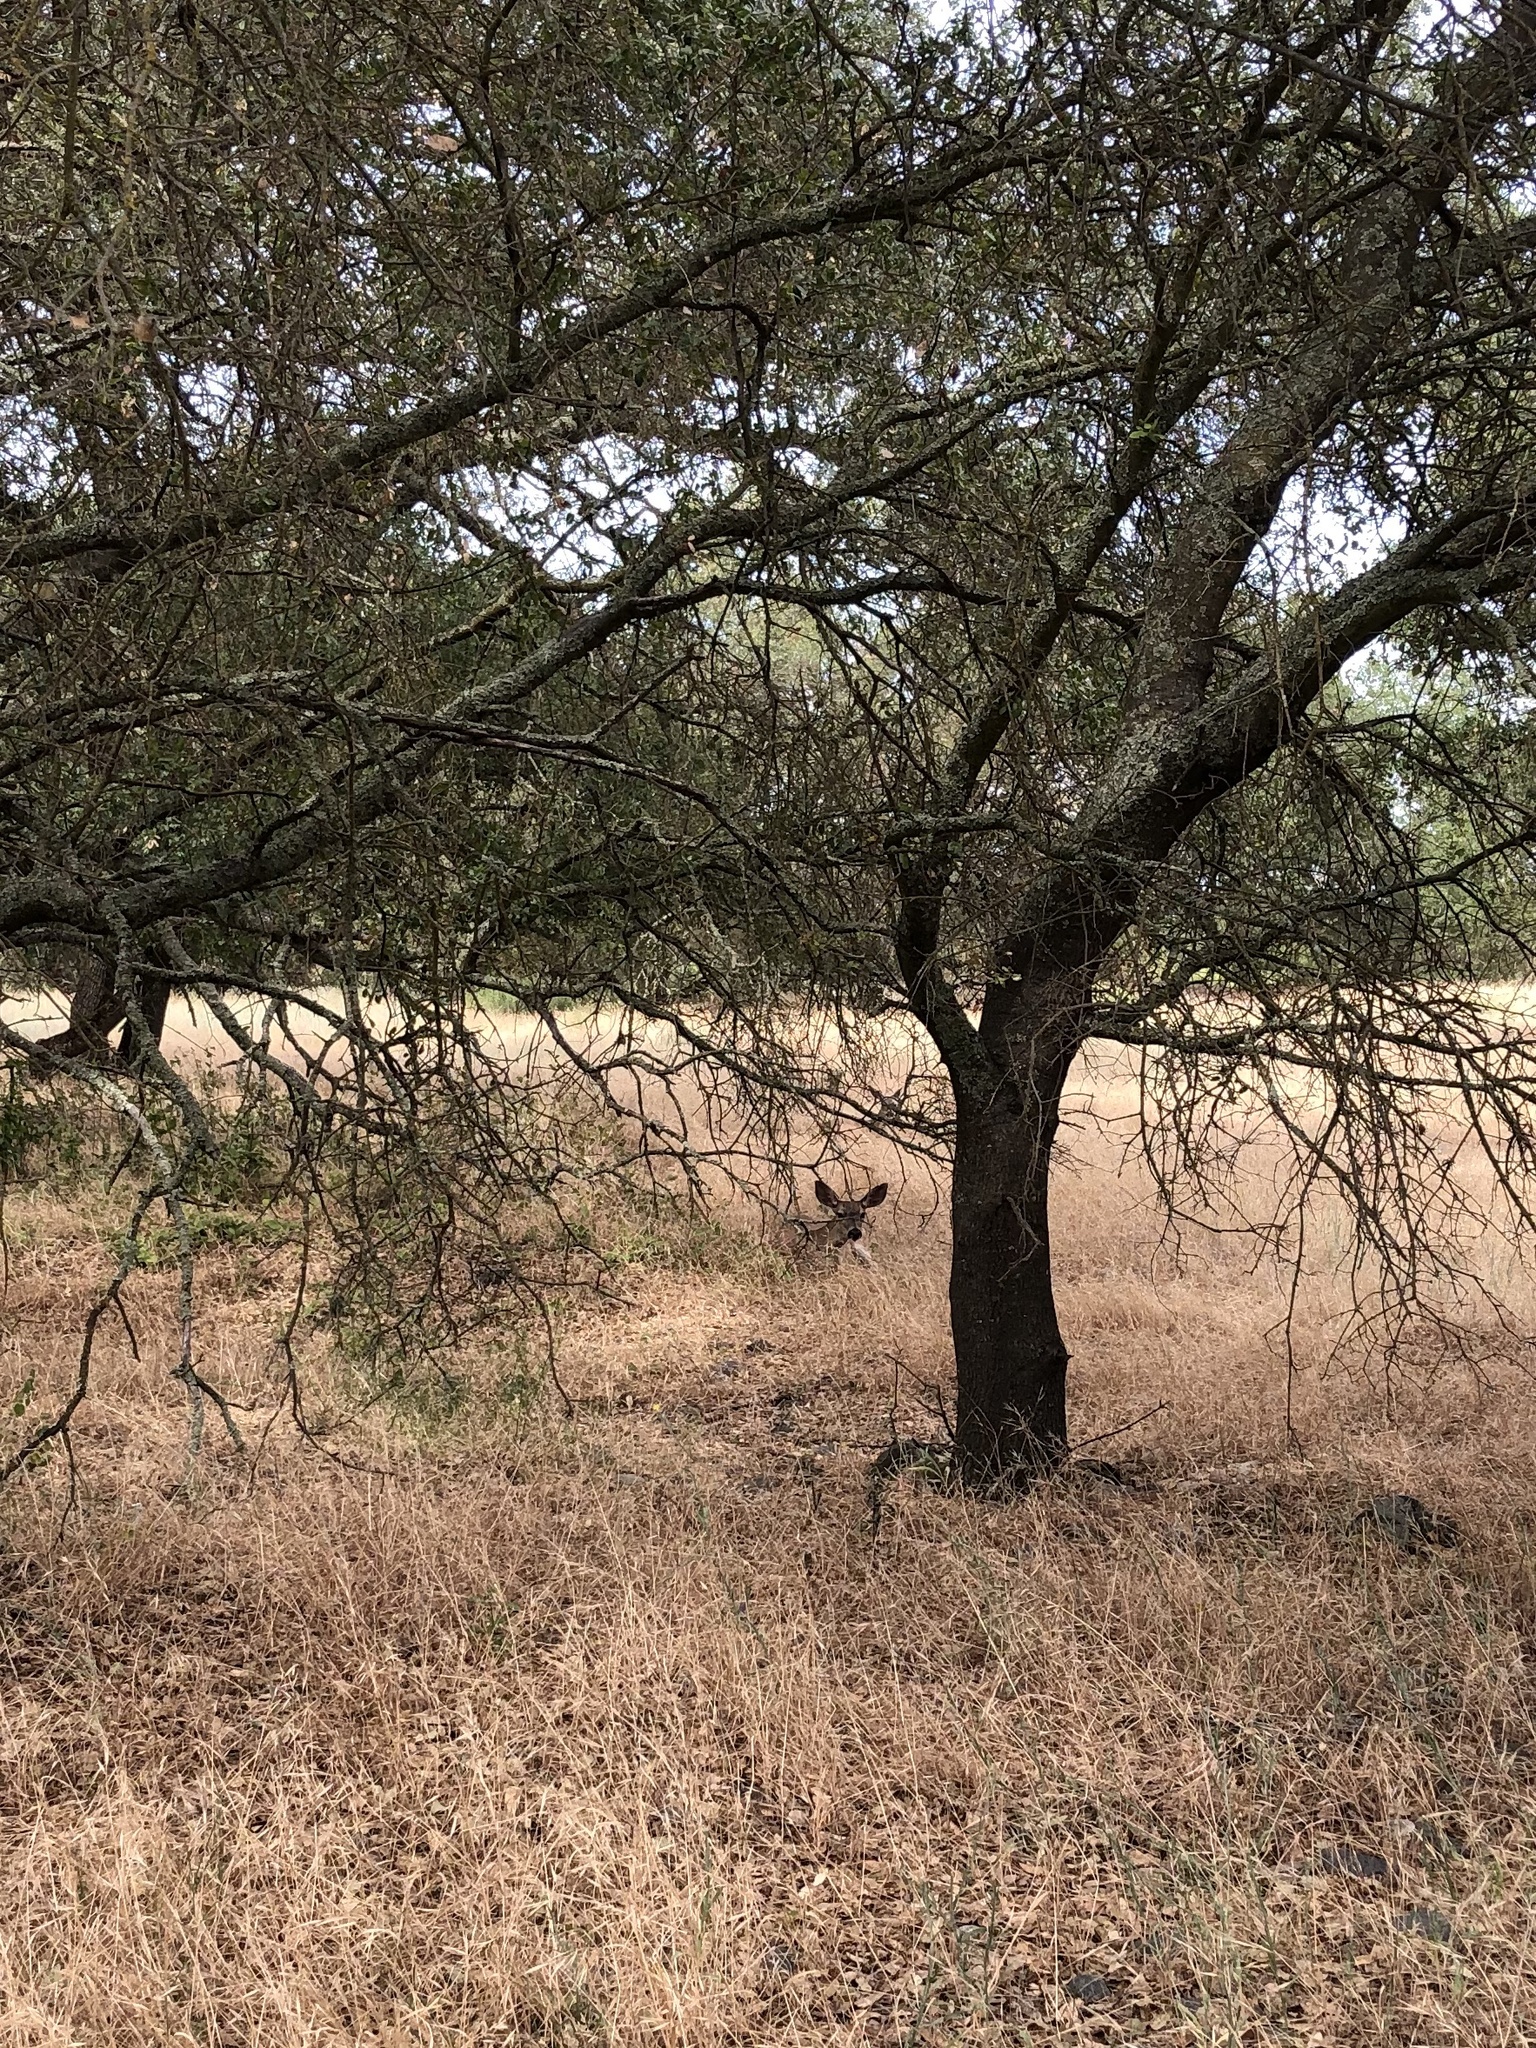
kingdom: Animalia
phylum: Chordata
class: Mammalia
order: Artiodactyla
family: Cervidae
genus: Odocoileus
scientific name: Odocoileus hemionus
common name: Mule deer
